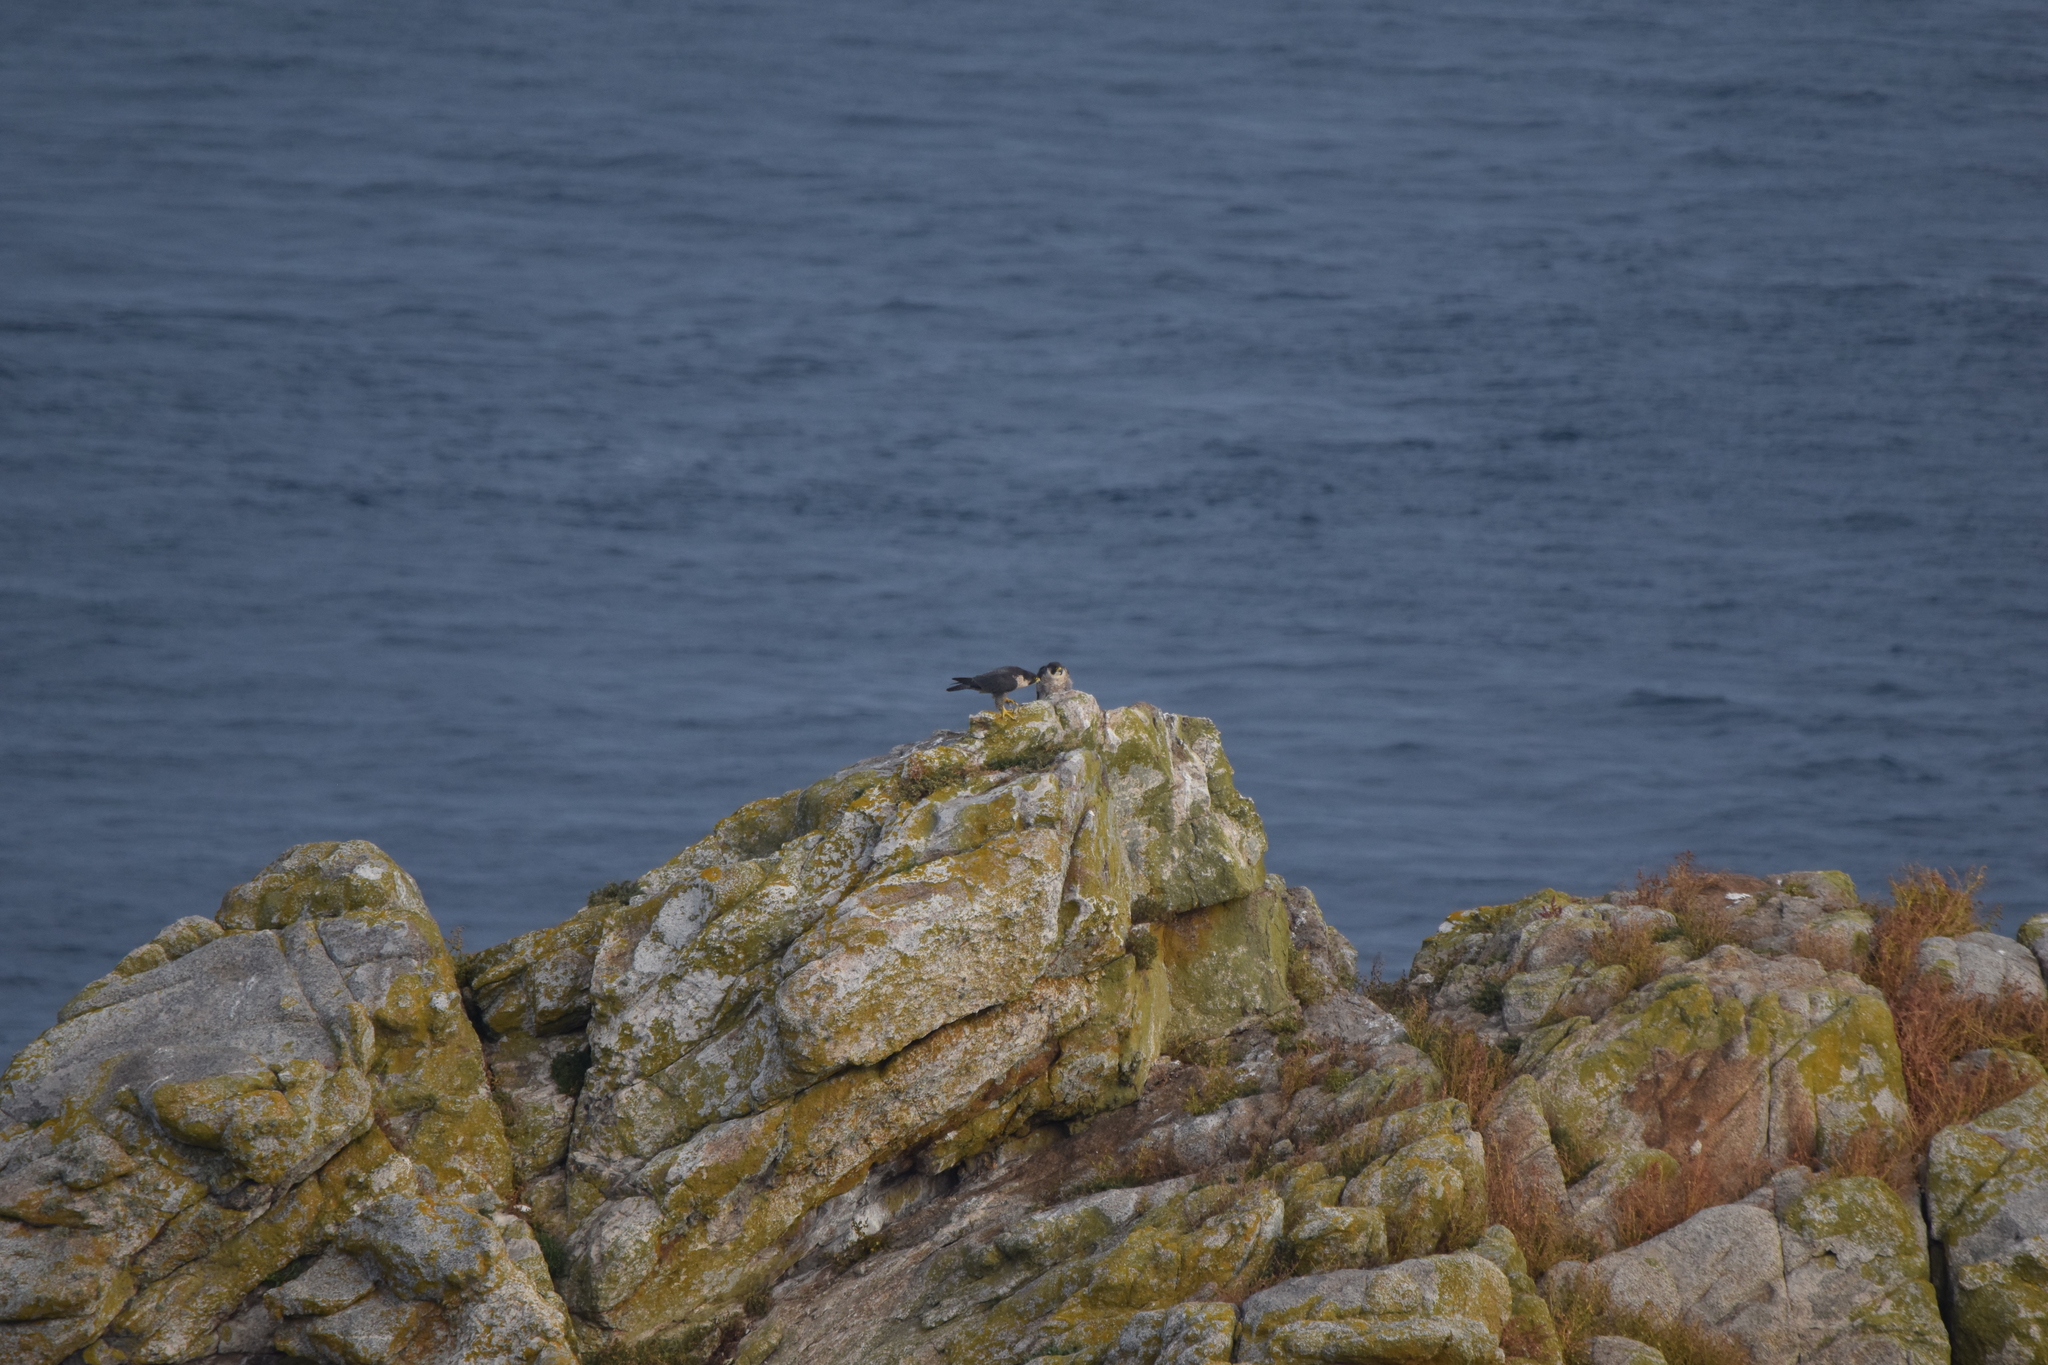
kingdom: Animalia
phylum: Chordata
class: Aves
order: Falconiformes
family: Falconidae
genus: Falco
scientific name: Falco peregrinus
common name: Peregrine falcon
